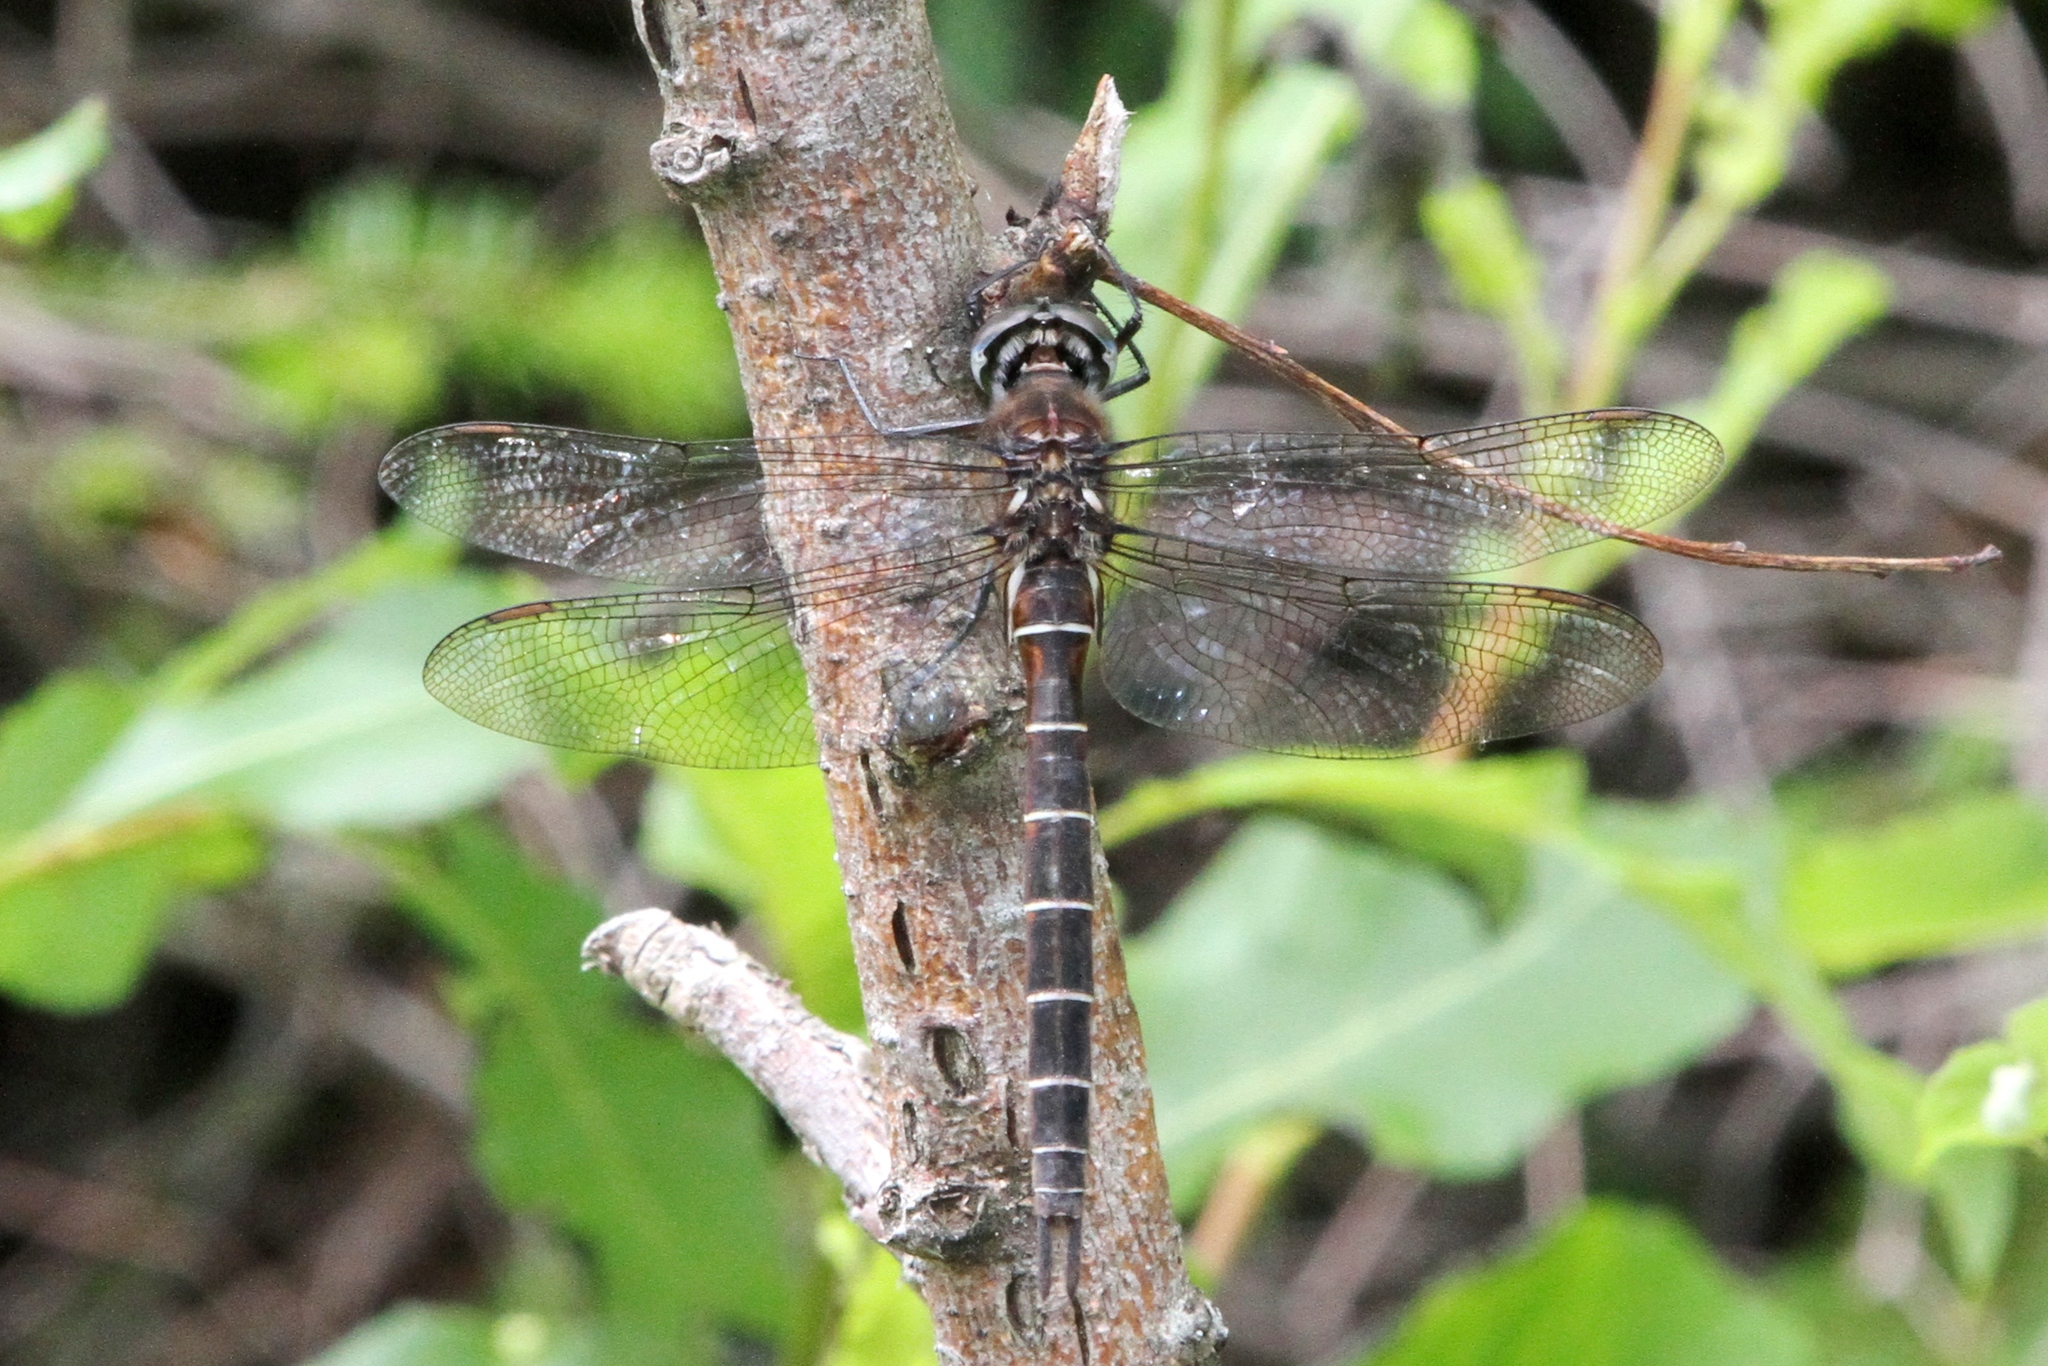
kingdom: Animalia
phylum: Arthropoda
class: Insecta
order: Odonata
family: Corduliidae
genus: Somatochlora
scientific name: Somatochlora cingulata
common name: Lake emerald
